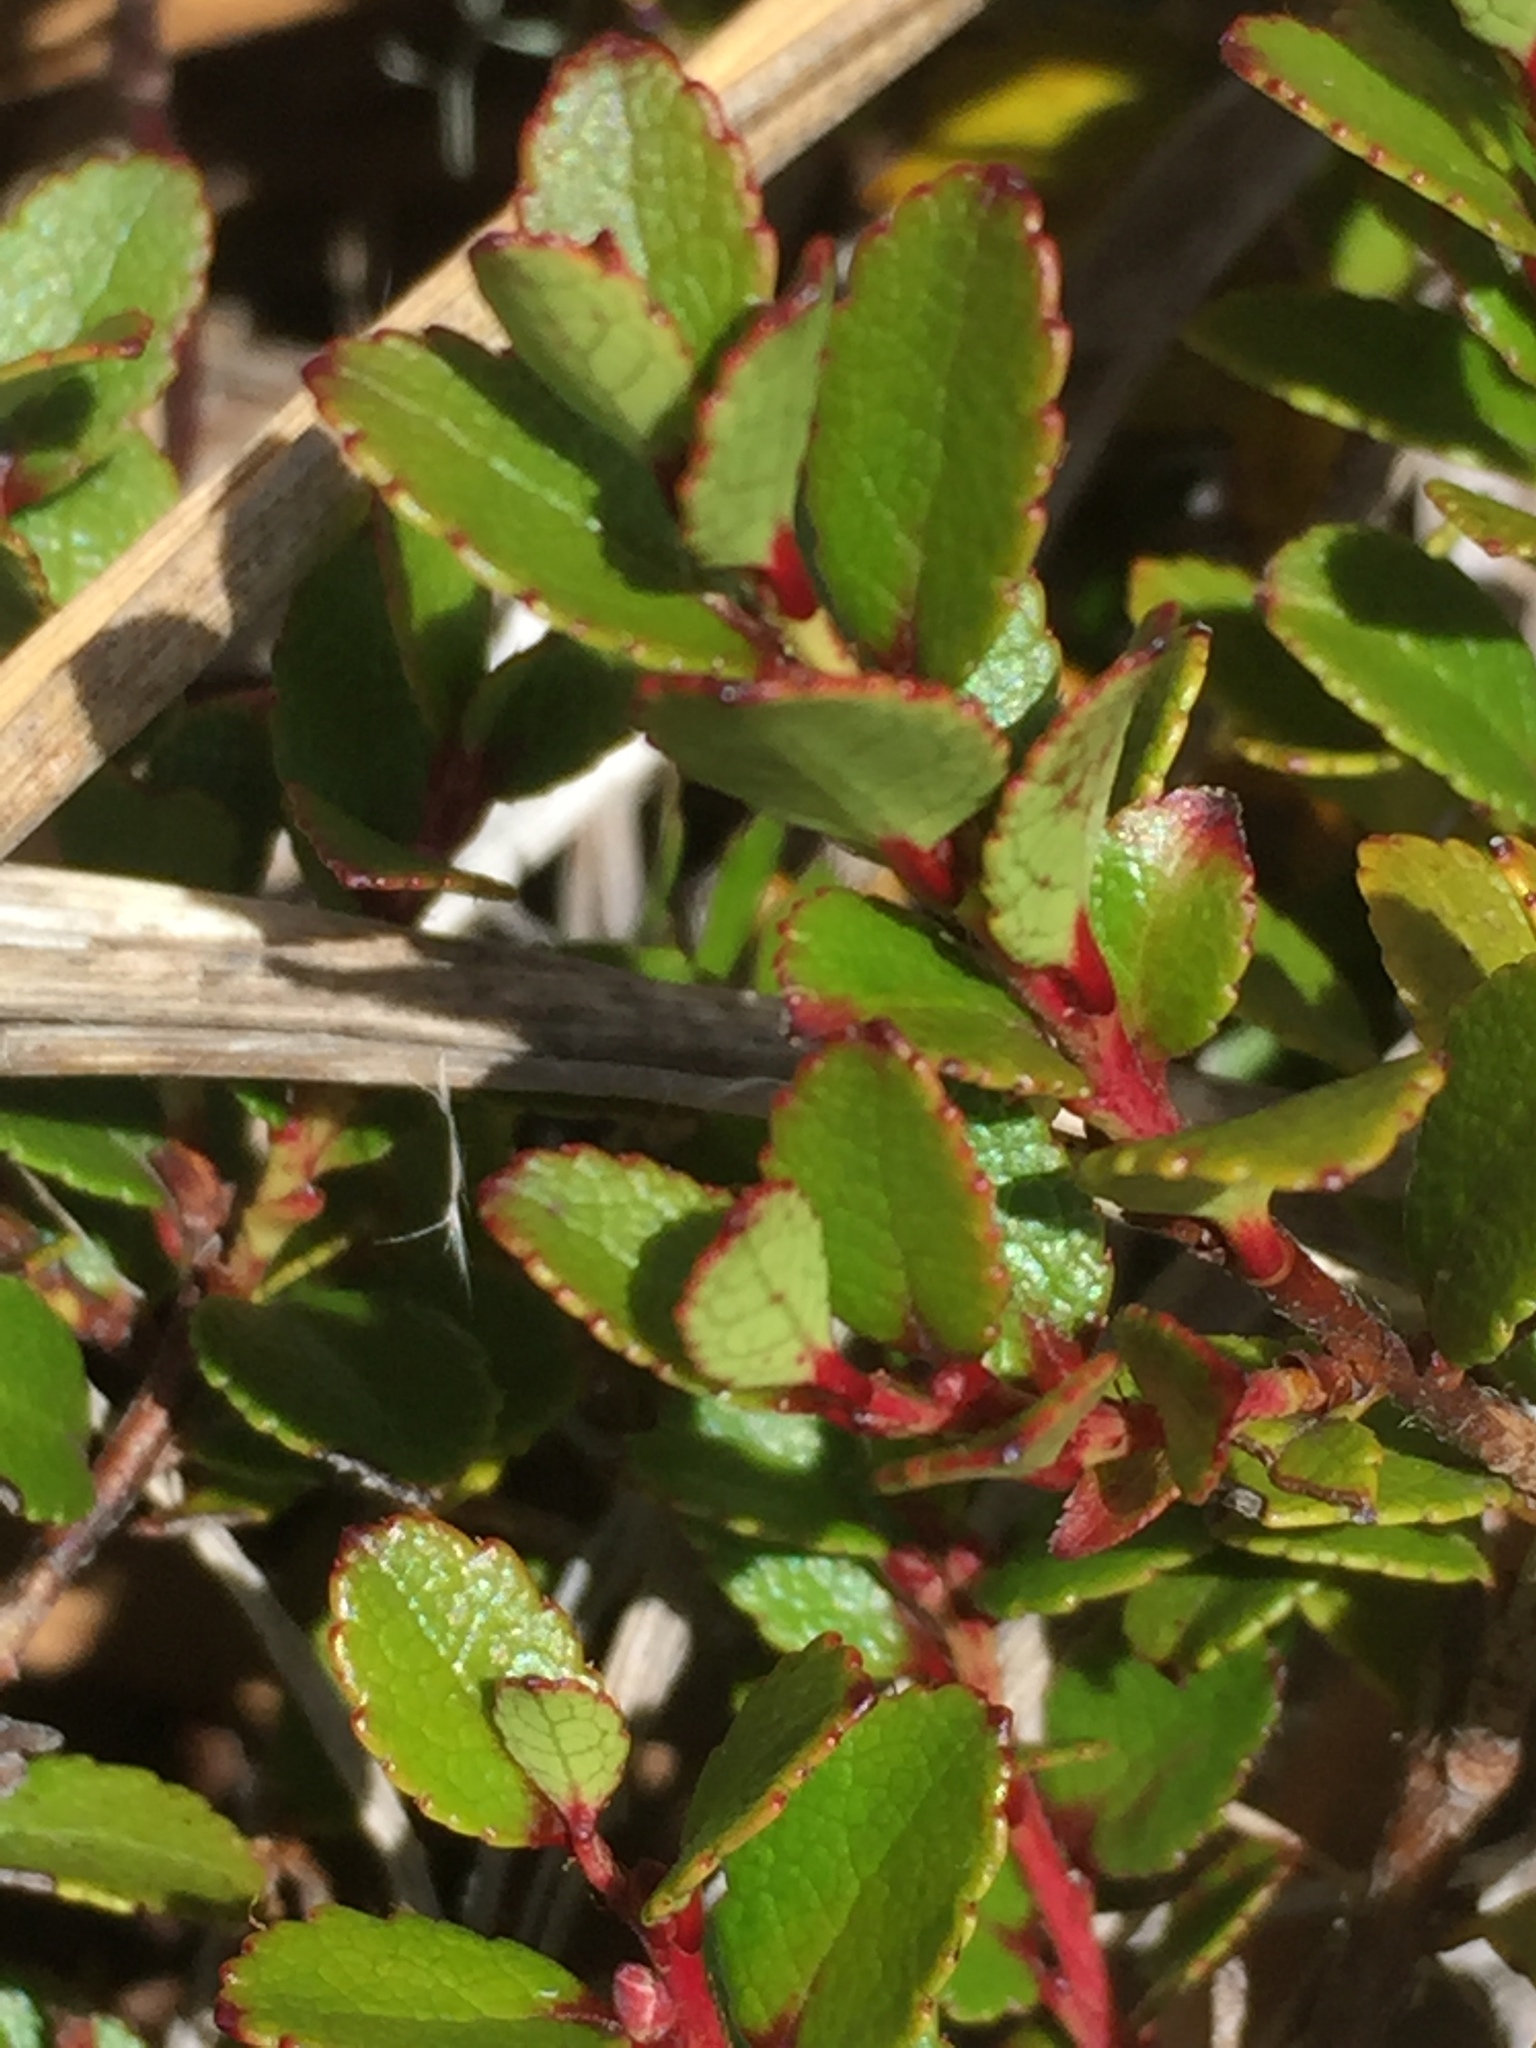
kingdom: Plantae
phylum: Tracheophyta
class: Magnoliopsida
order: Ericales
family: Ericaceae
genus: Gaultheria
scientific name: Gaultheria crassa
